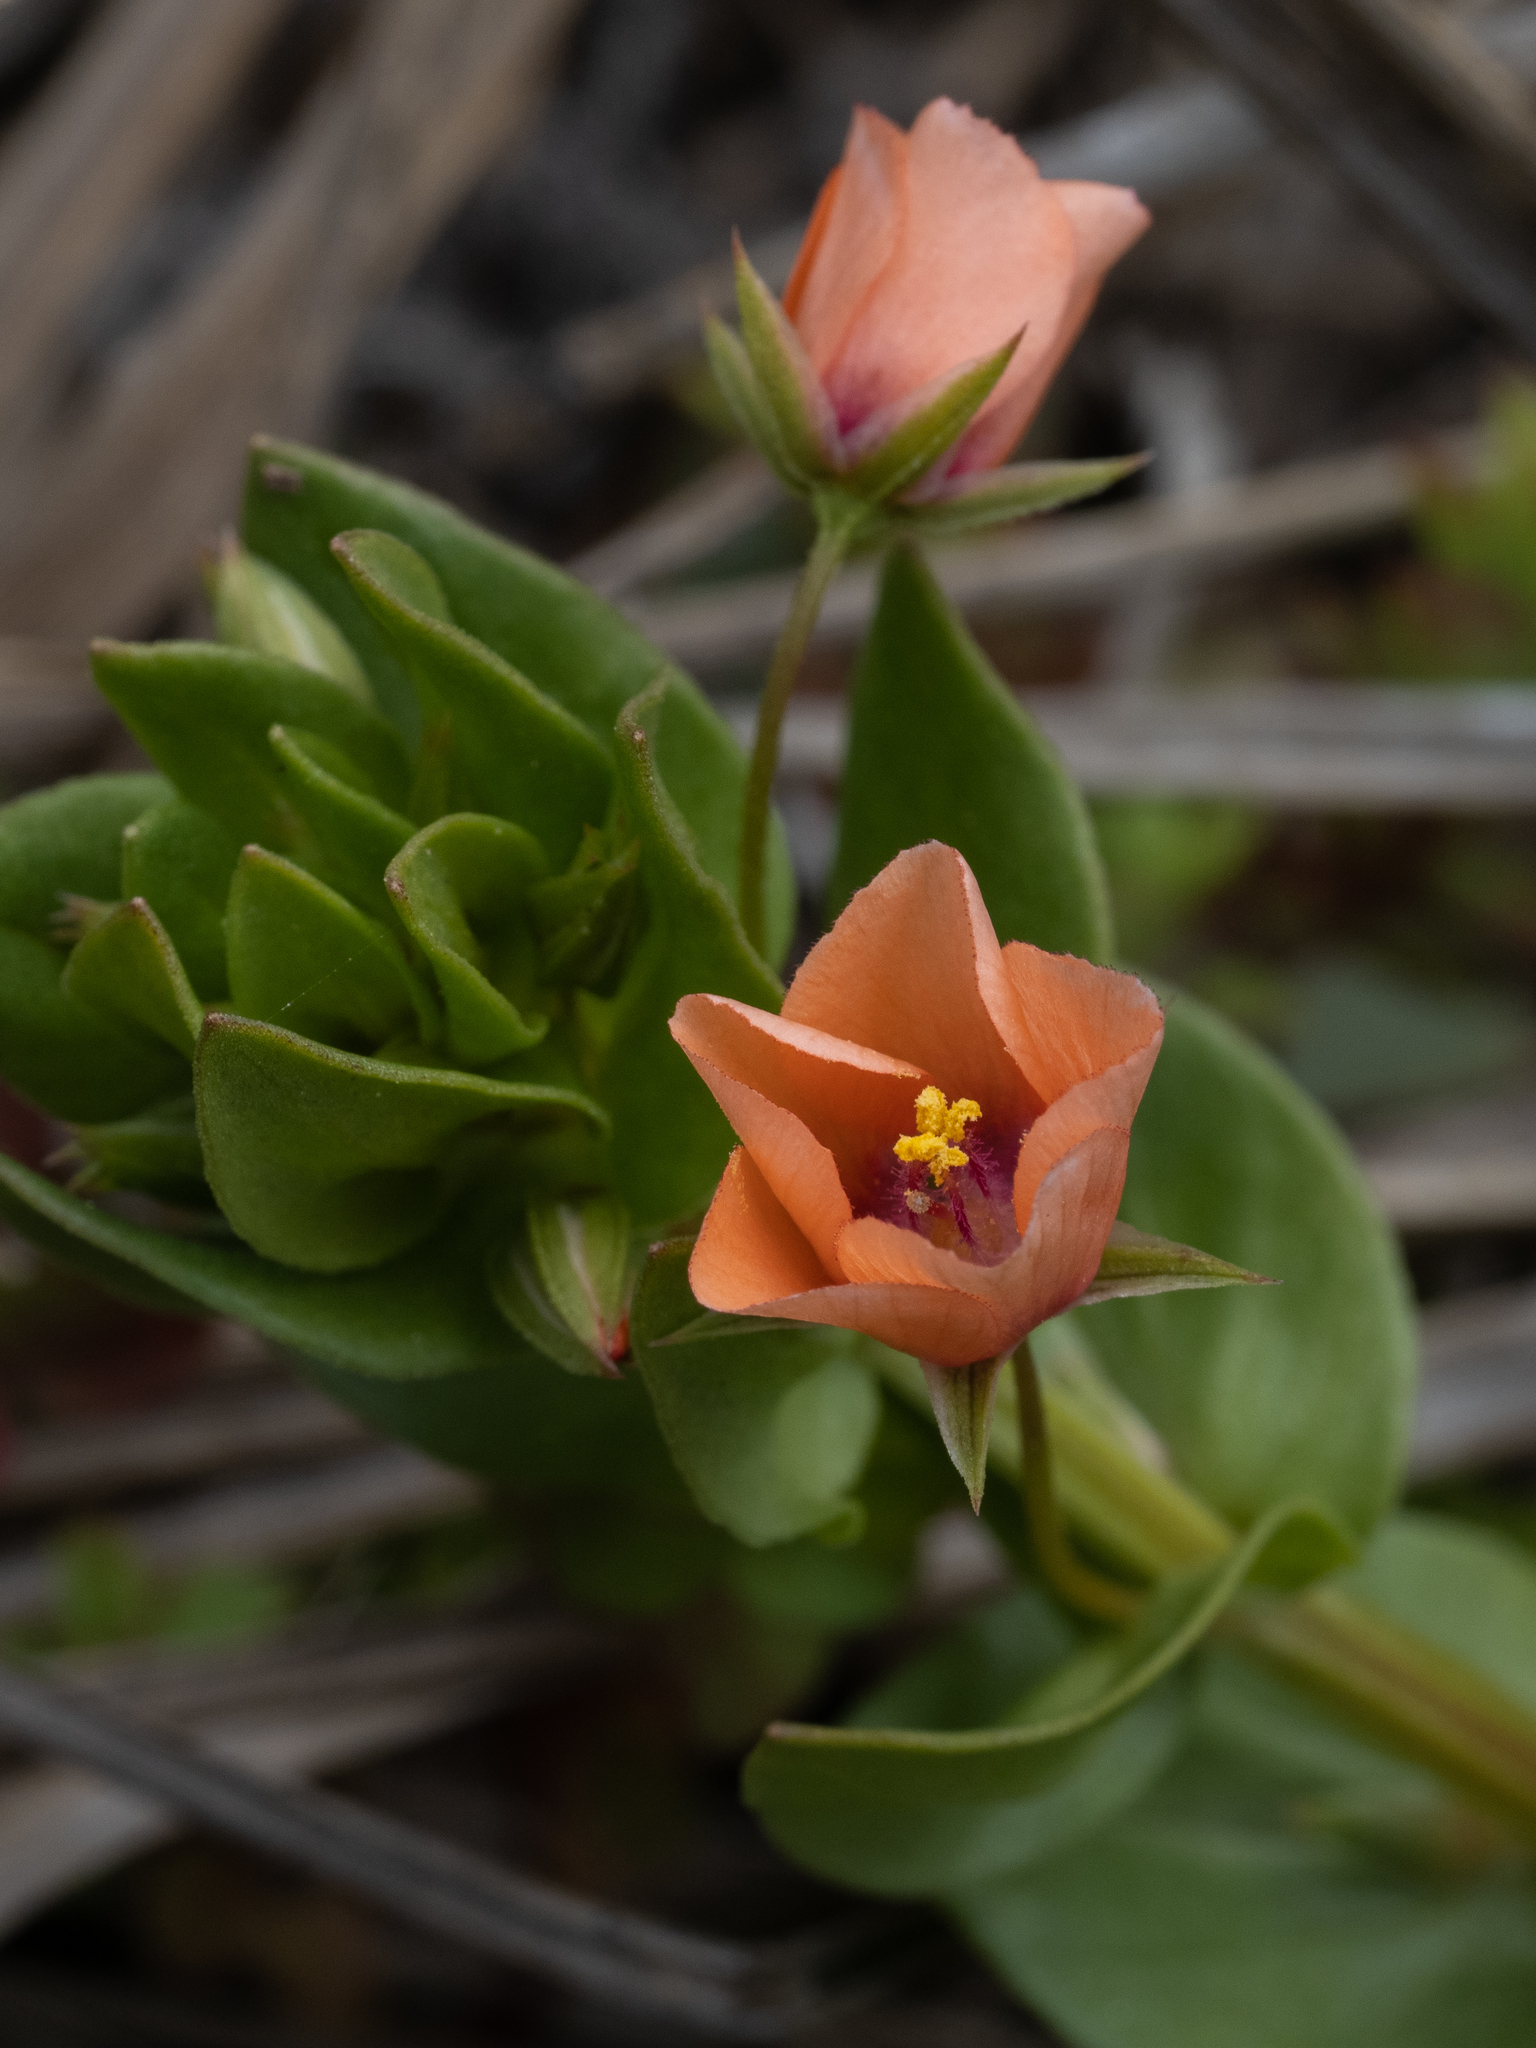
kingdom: Plantae
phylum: Tracheophyta
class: Magnoliopsida
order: Ericales
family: Primulaceae
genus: Lysimachia
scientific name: Lysimachia arvensis
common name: Scarlet pimpernel
